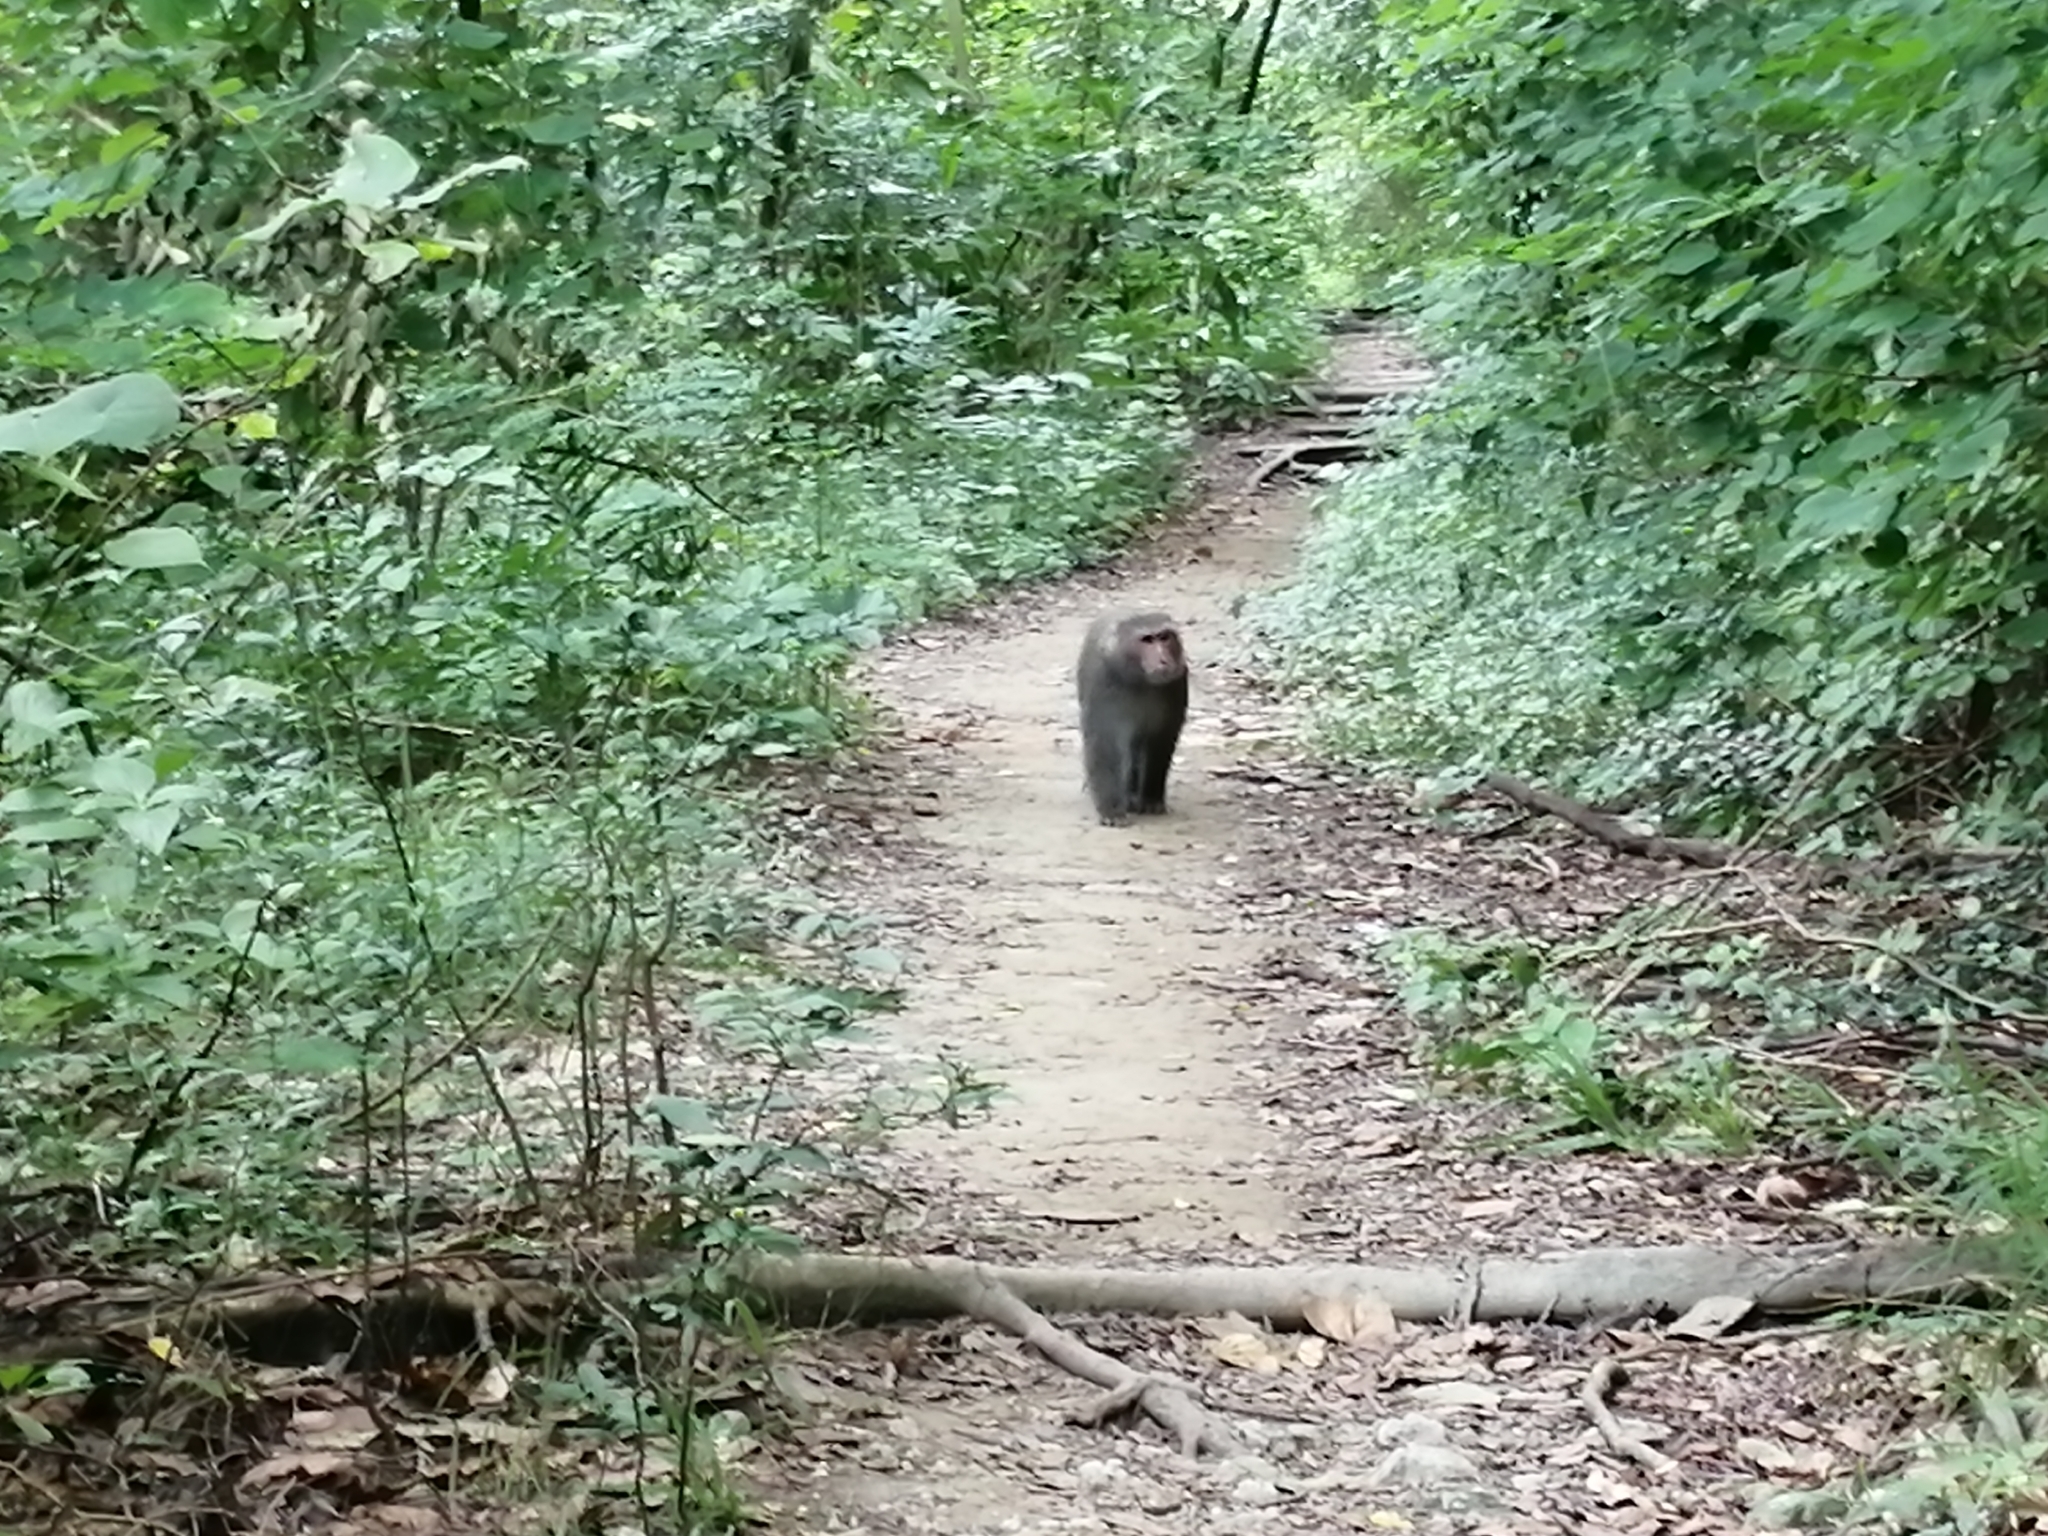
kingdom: Animalia
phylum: Chordata
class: Mammalia
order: Primates
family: Cercopithecidae
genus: Macaca
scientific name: Macaca cyclopis
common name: Formosan rock macaque
